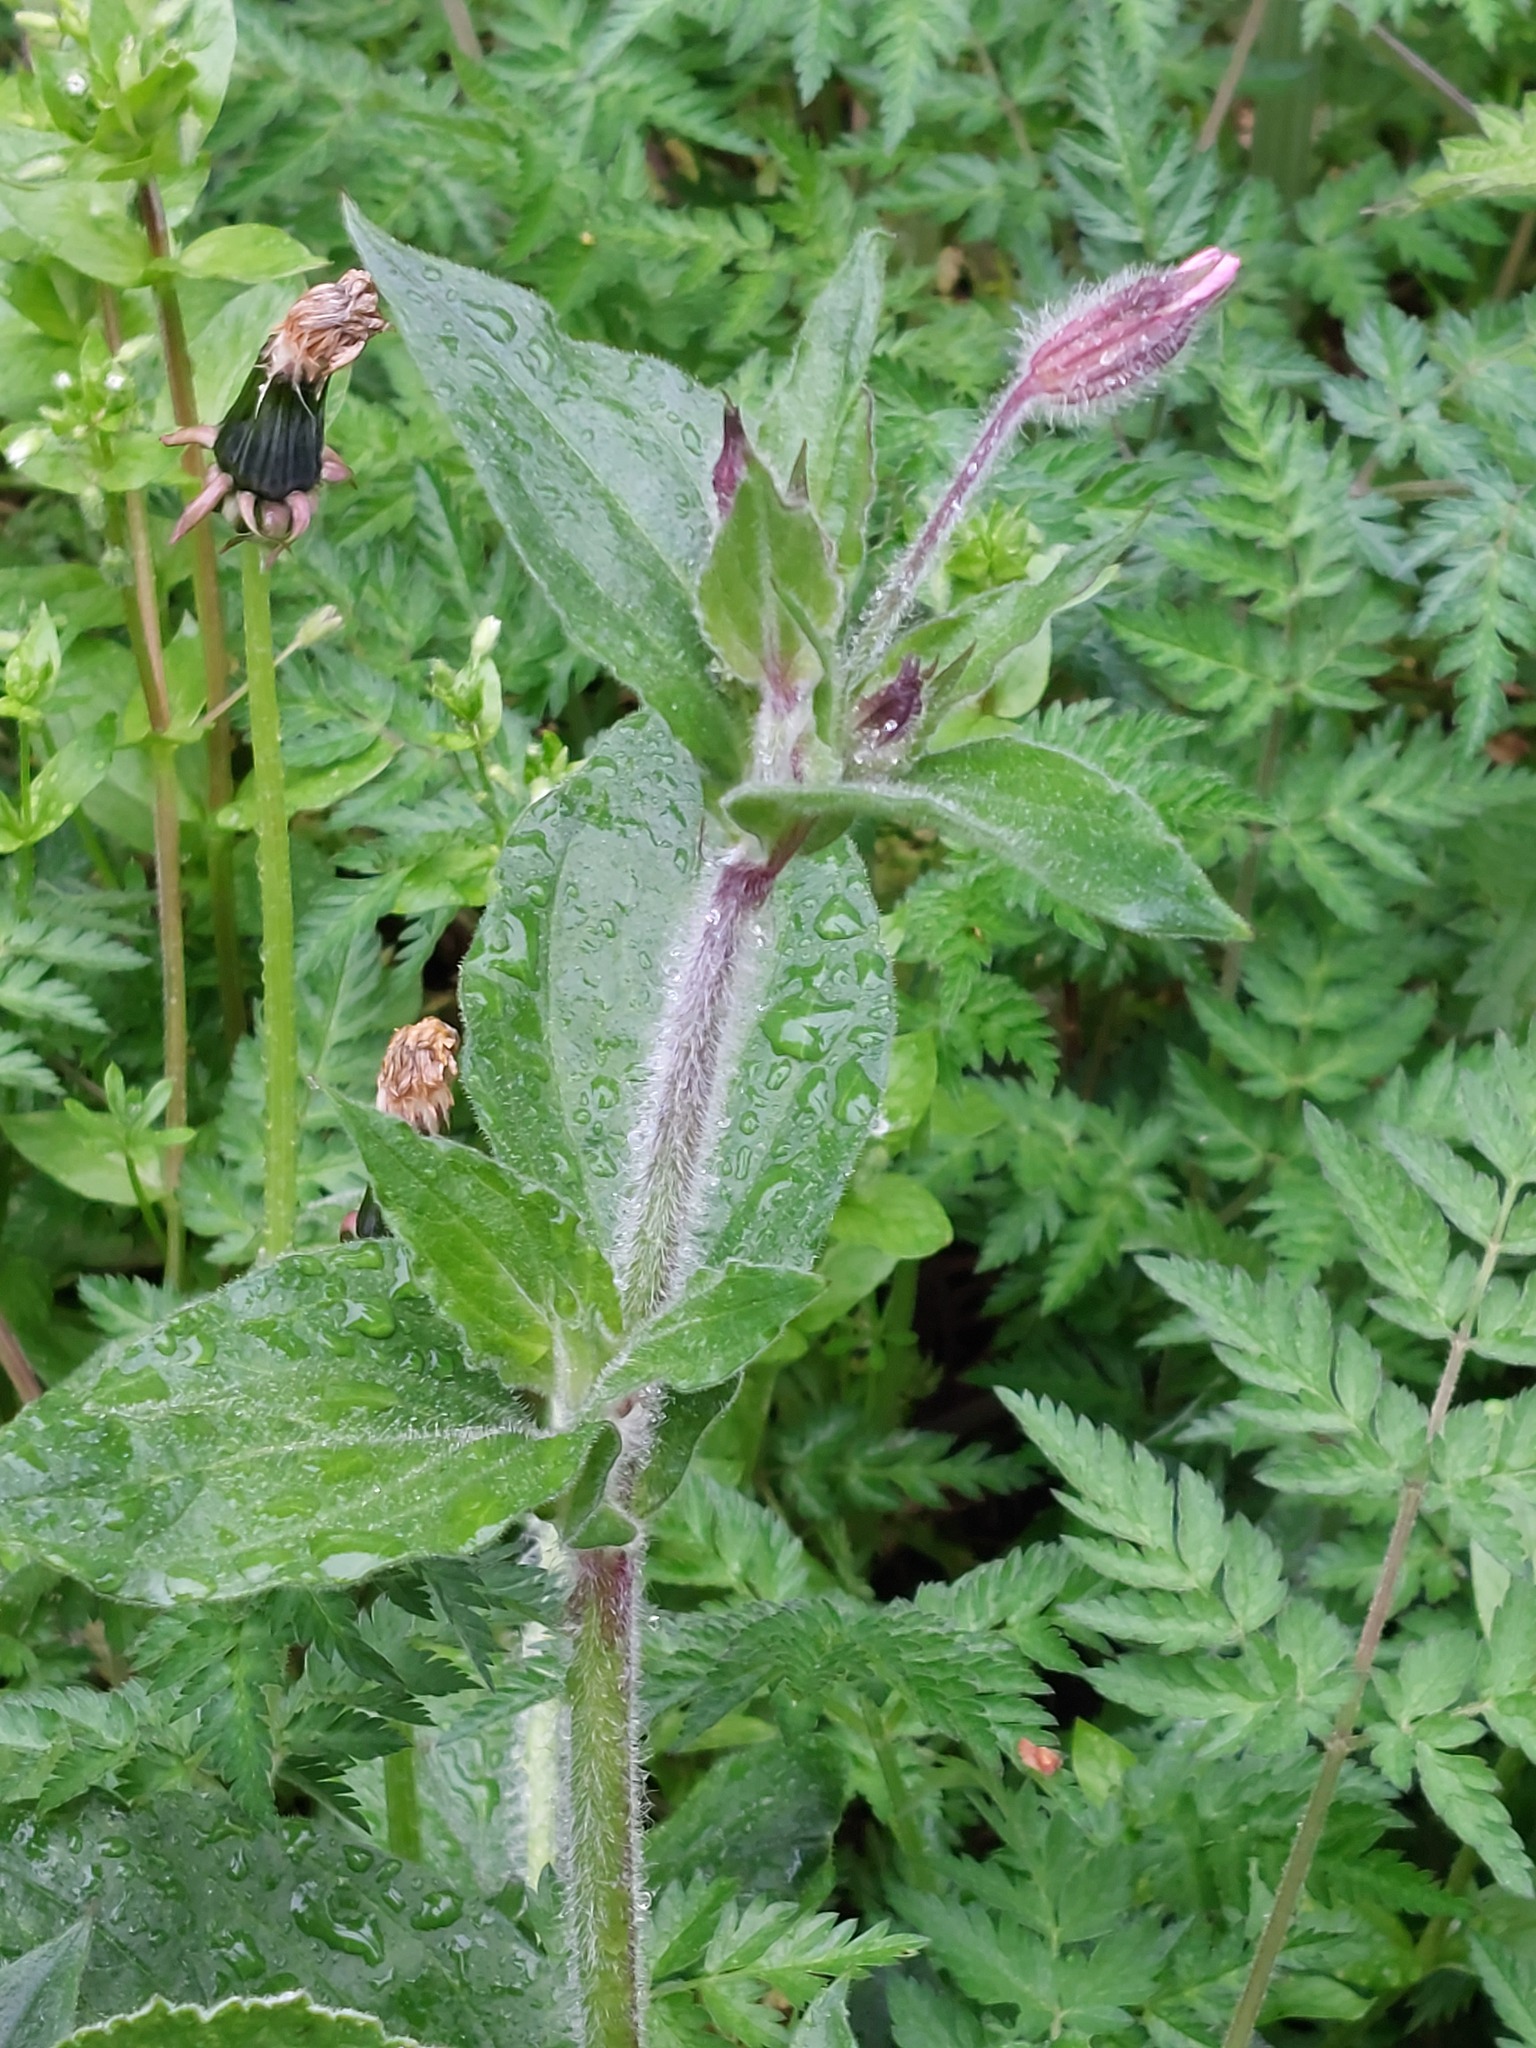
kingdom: Plantae
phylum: Tracheophyta
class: Magnoliopsida
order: Caryophyllales
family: Caryophyllaceae
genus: Silene
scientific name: Silene dioica
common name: Red campion
